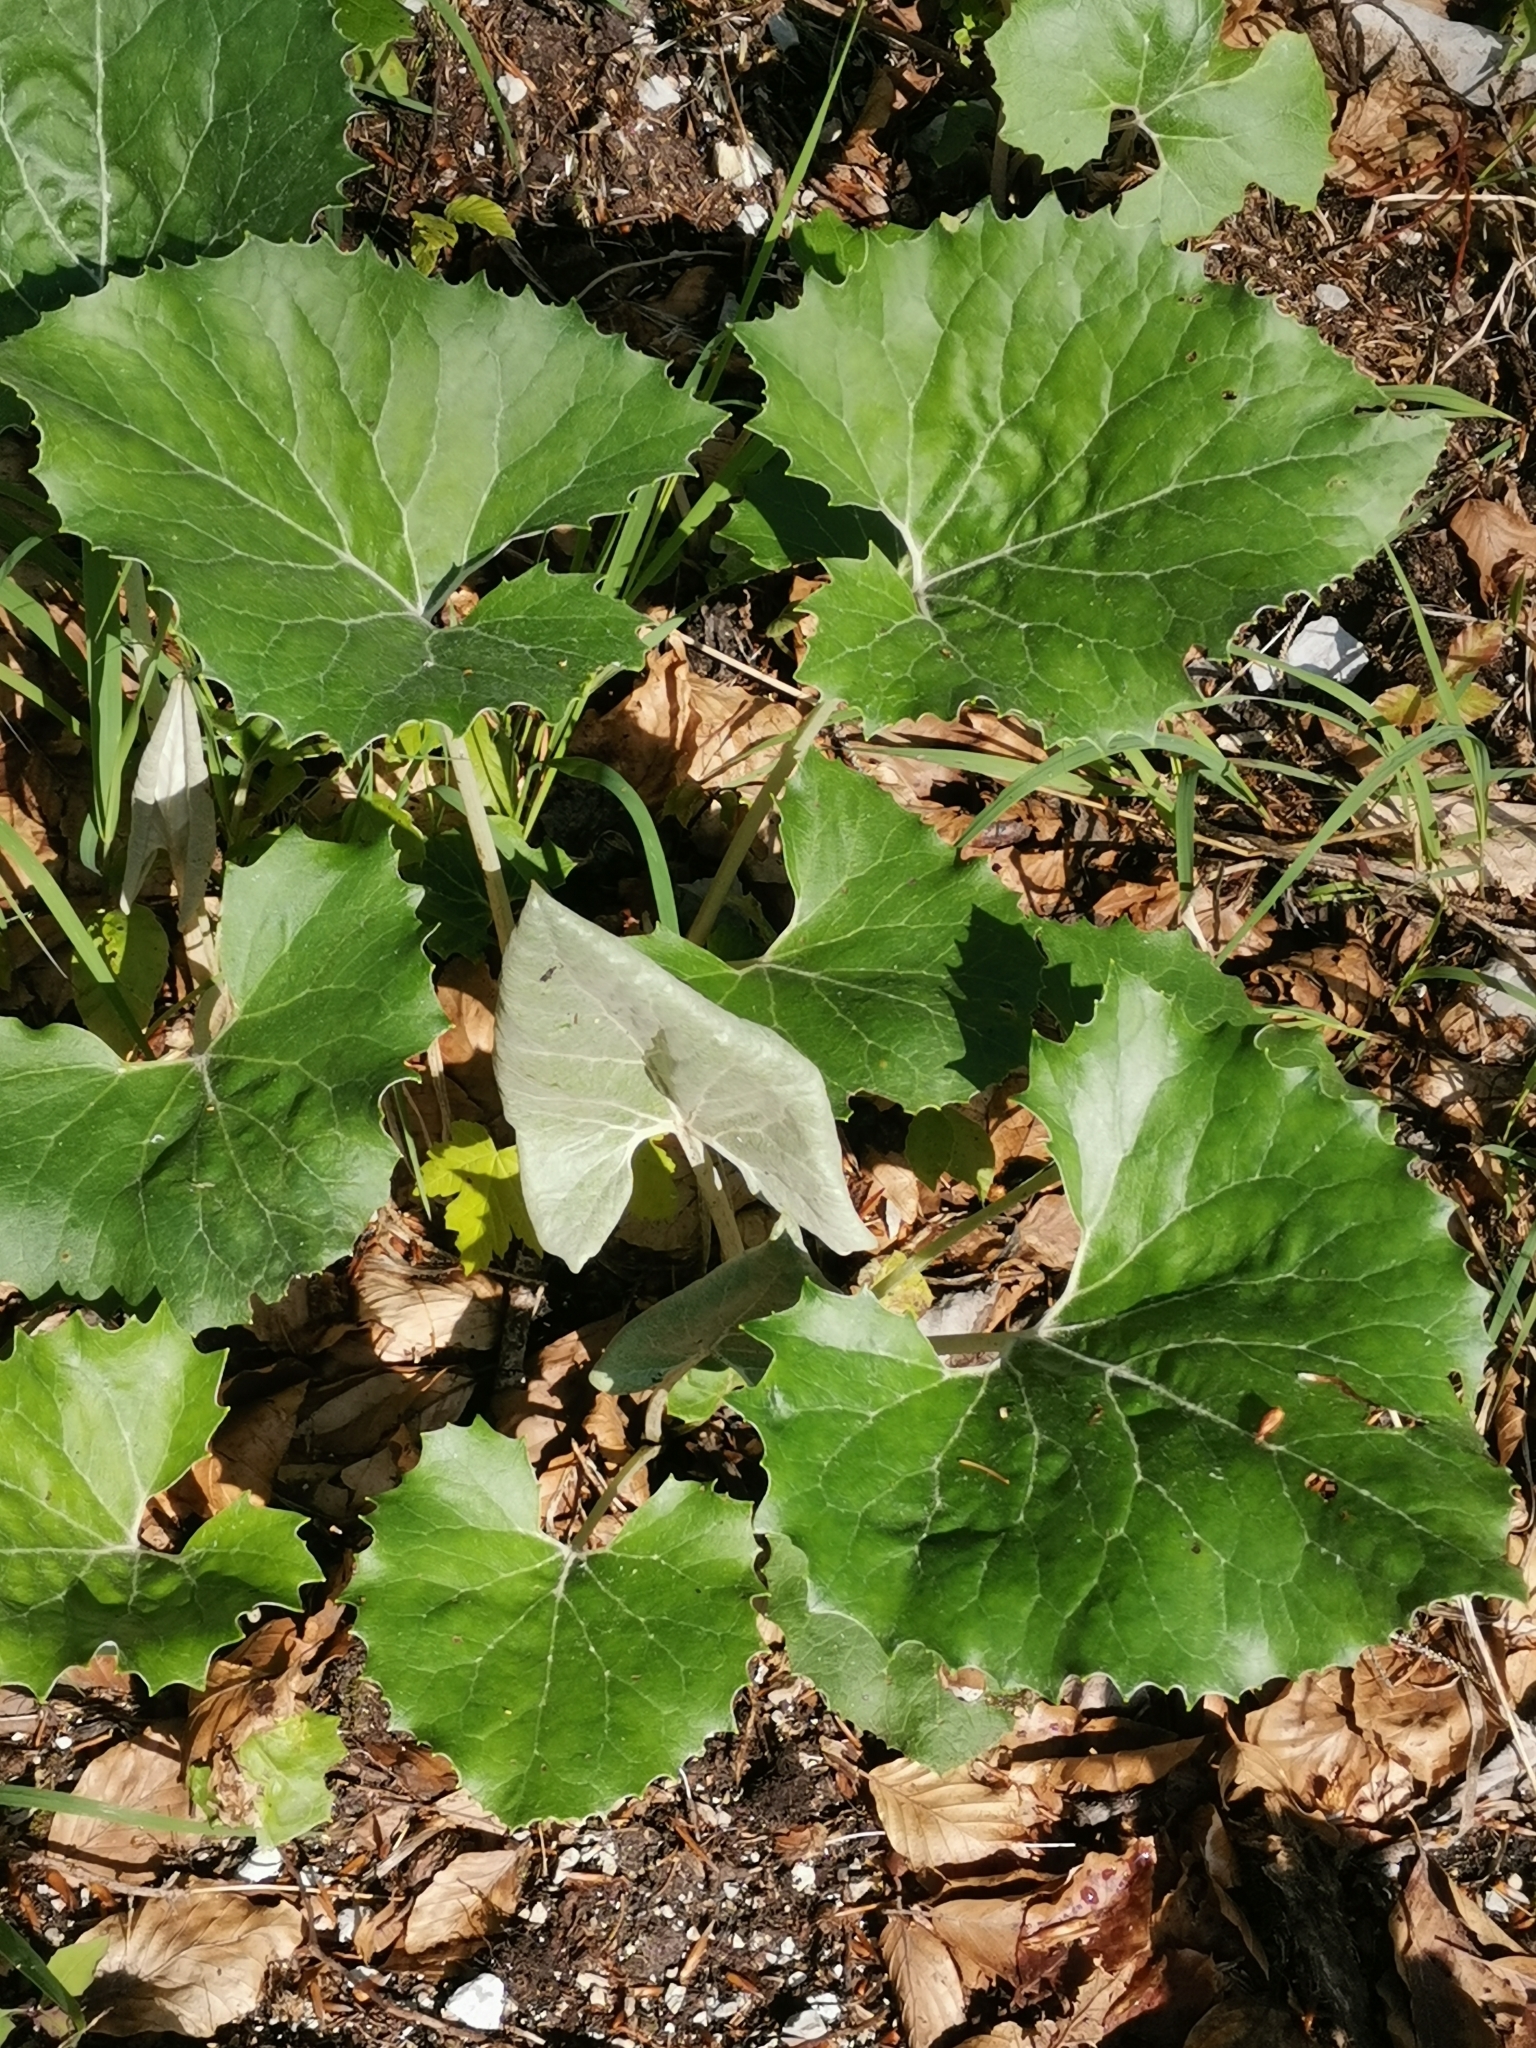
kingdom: Plantae
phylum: Tracheophyta
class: Magnoliopsida
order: Asterales
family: Asteraceae
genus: Petasites
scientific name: Petasites paradoxus
